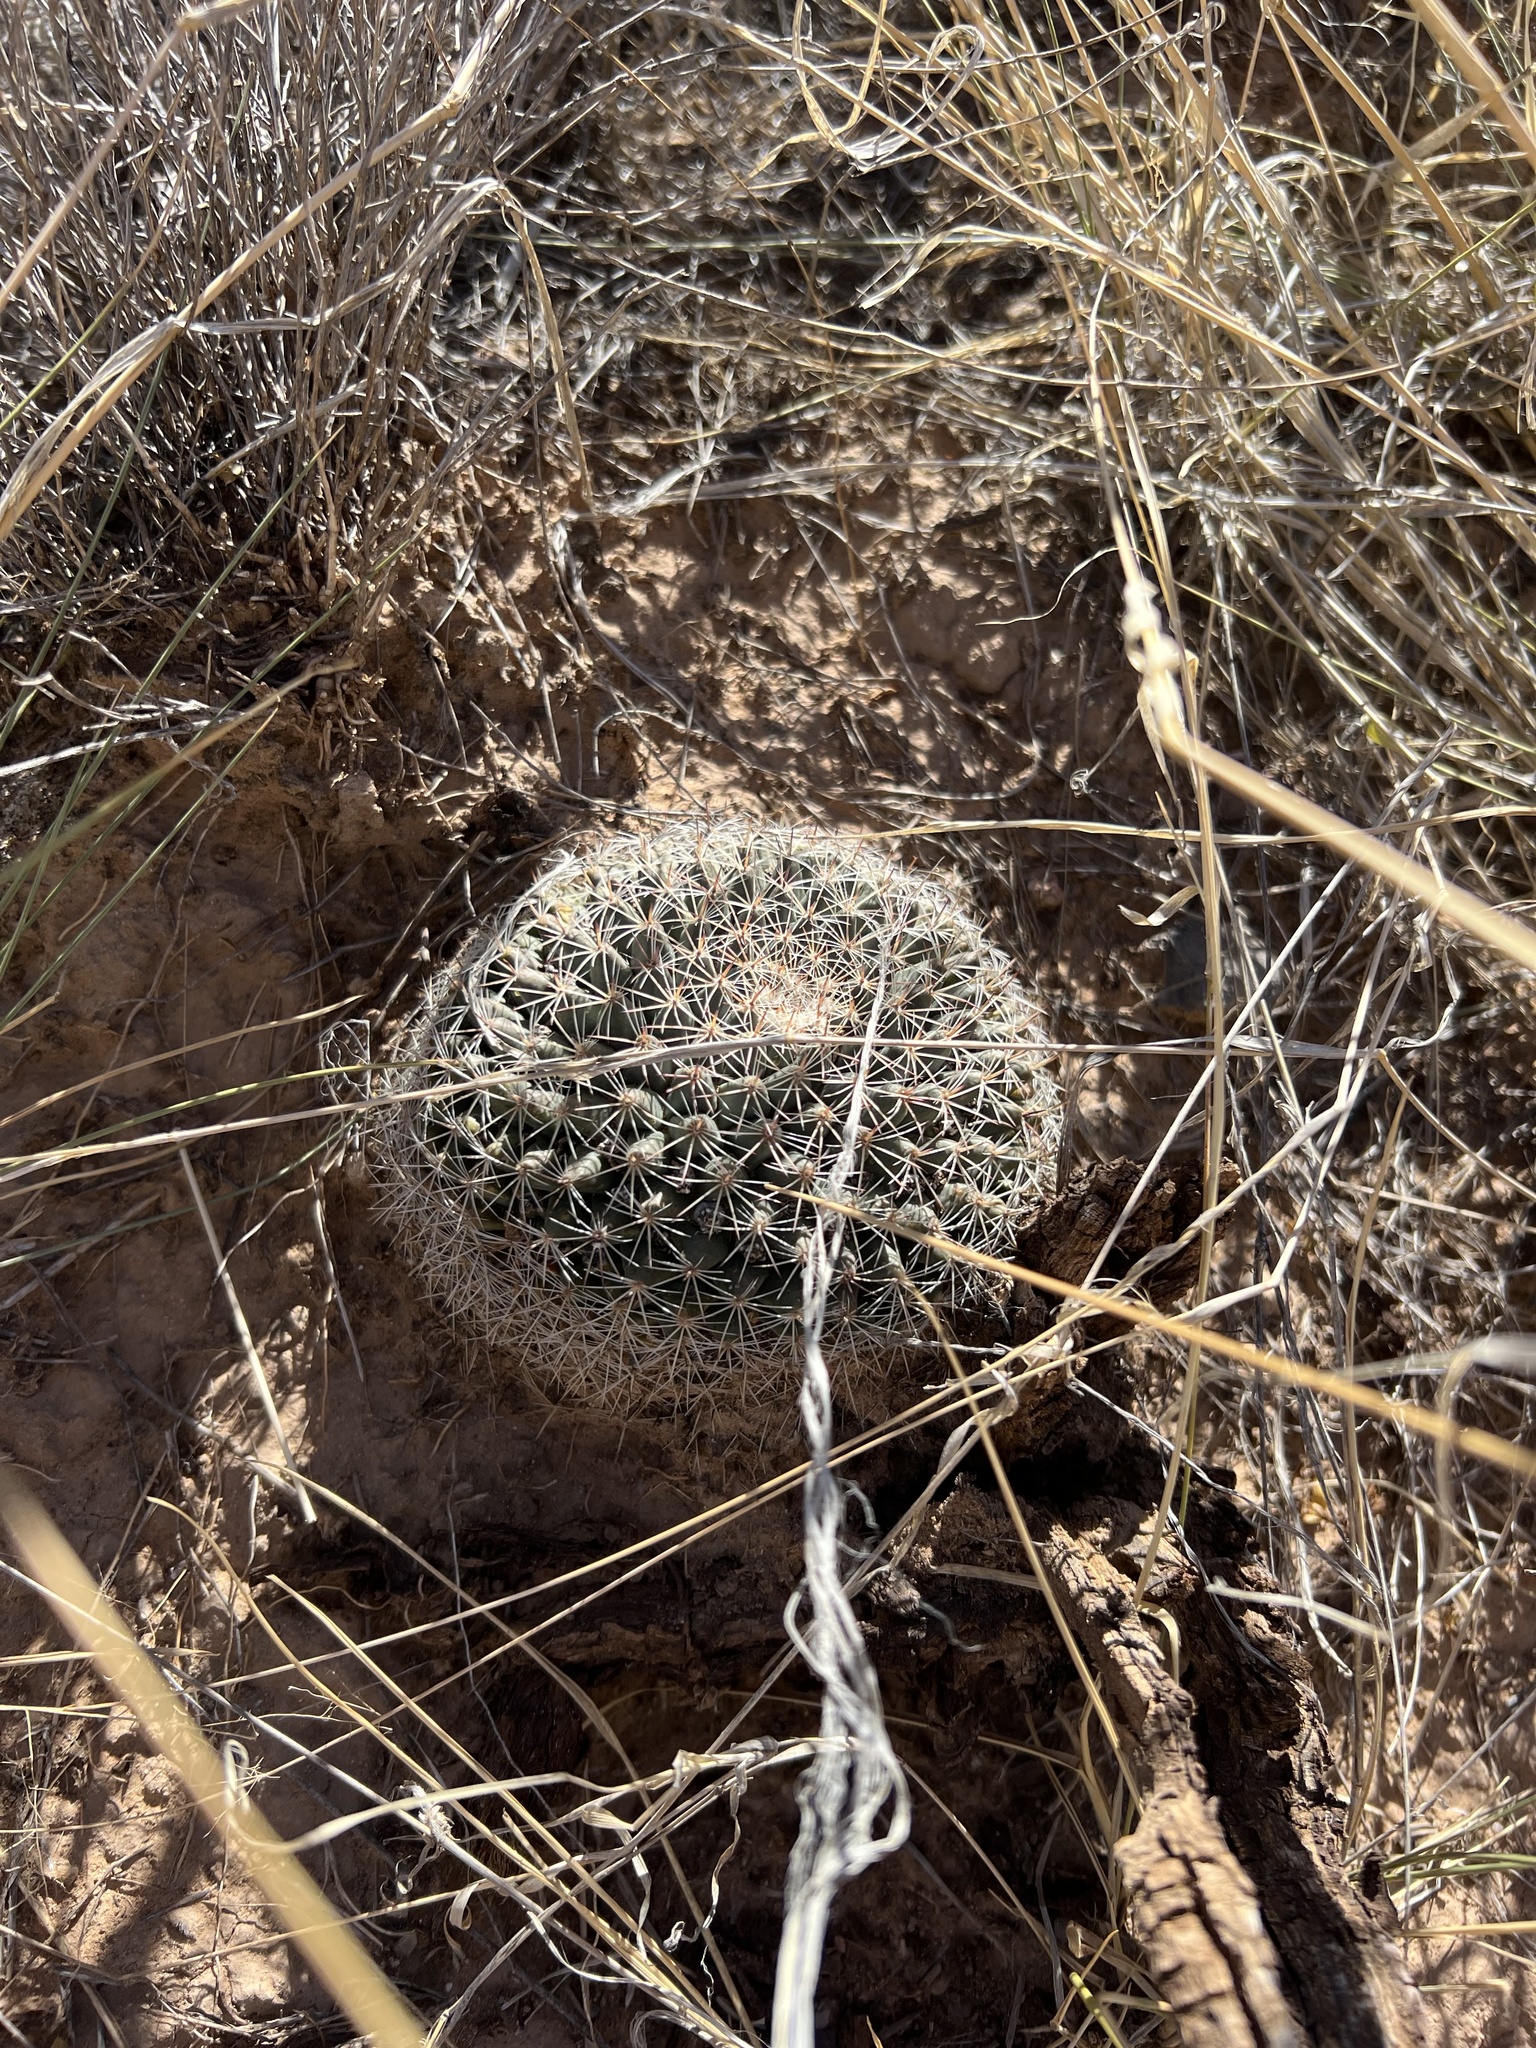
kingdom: Plantae
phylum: Tracheophyta
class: Magnoliopsida
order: Caryophyllales
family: Cactaceae
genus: Mammillaria
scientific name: Mammillaria heyderi
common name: Little nipple cactus
